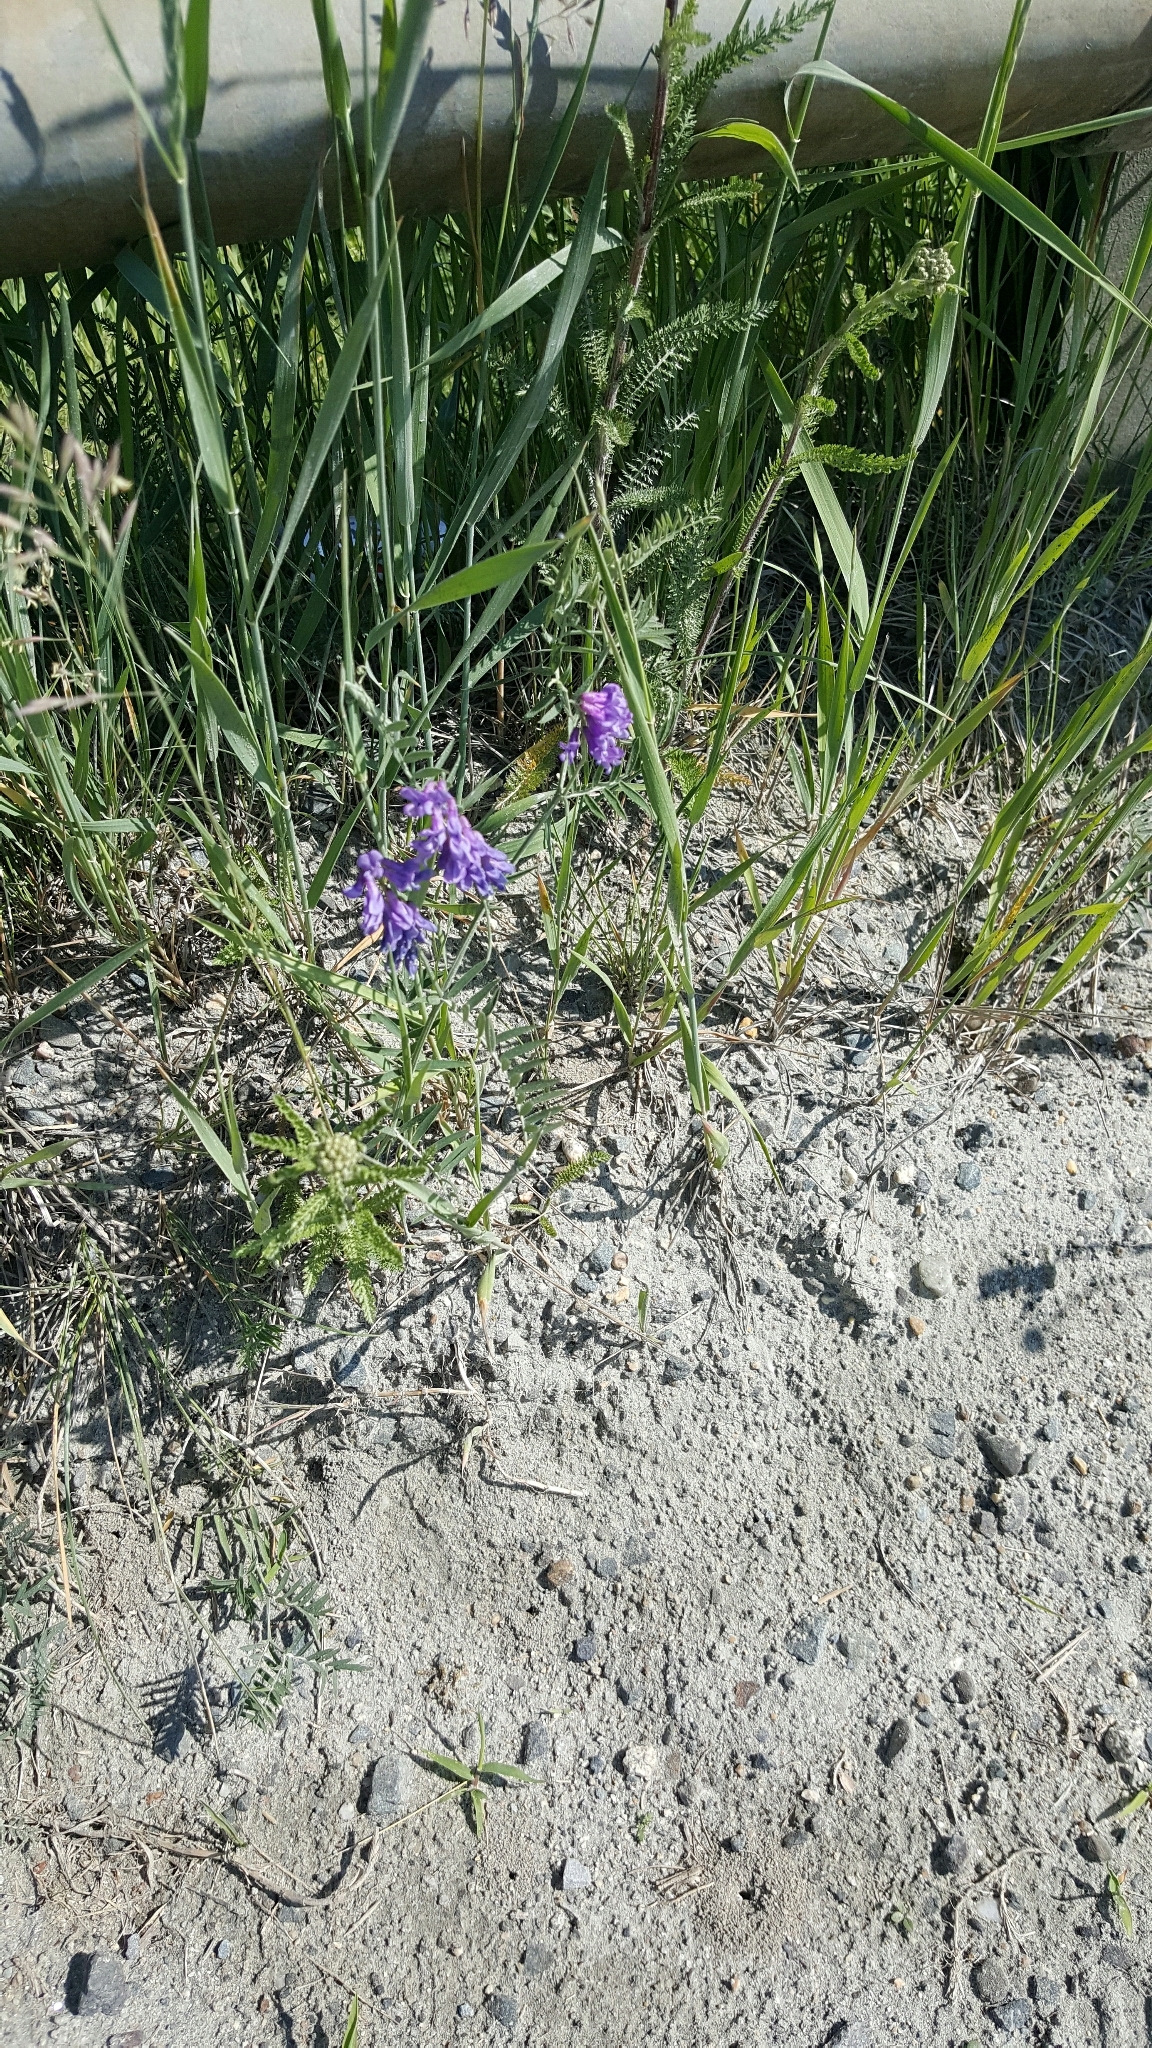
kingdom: Plantae
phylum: Tracheophyta
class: Magnoliopsida
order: Fabales
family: Fabaceae
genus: Vicia
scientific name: Vicia cracca
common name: Bird vetch
